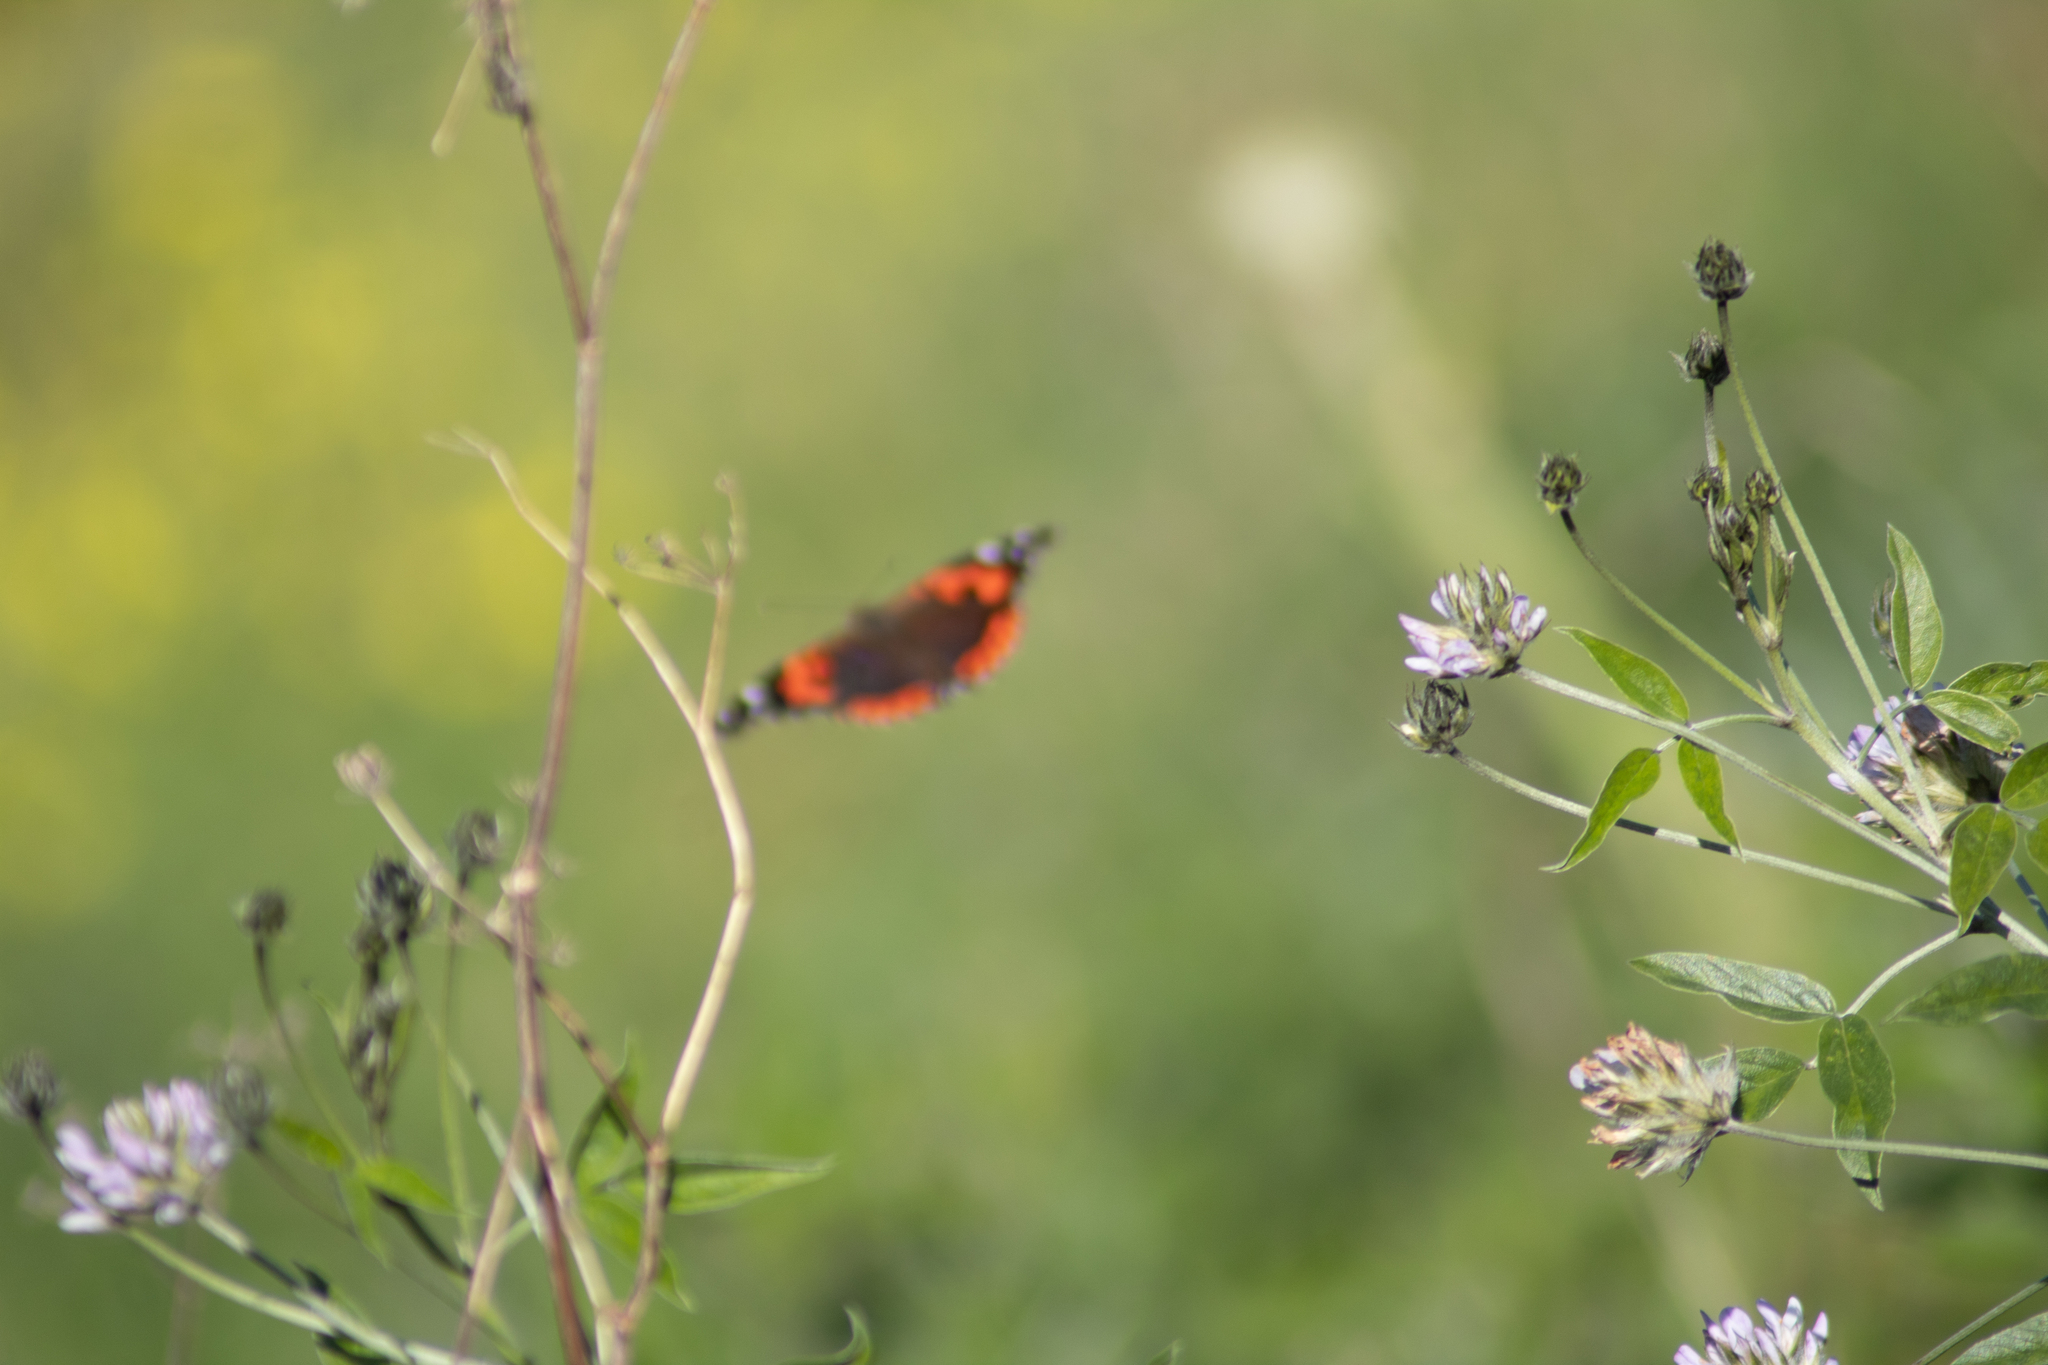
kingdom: Animalia
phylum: Arthropoda
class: Insecta
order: Lepidoptera
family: Nymphalidae
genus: Vanessa
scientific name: Vanessa vulcania
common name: Canary red admiral
